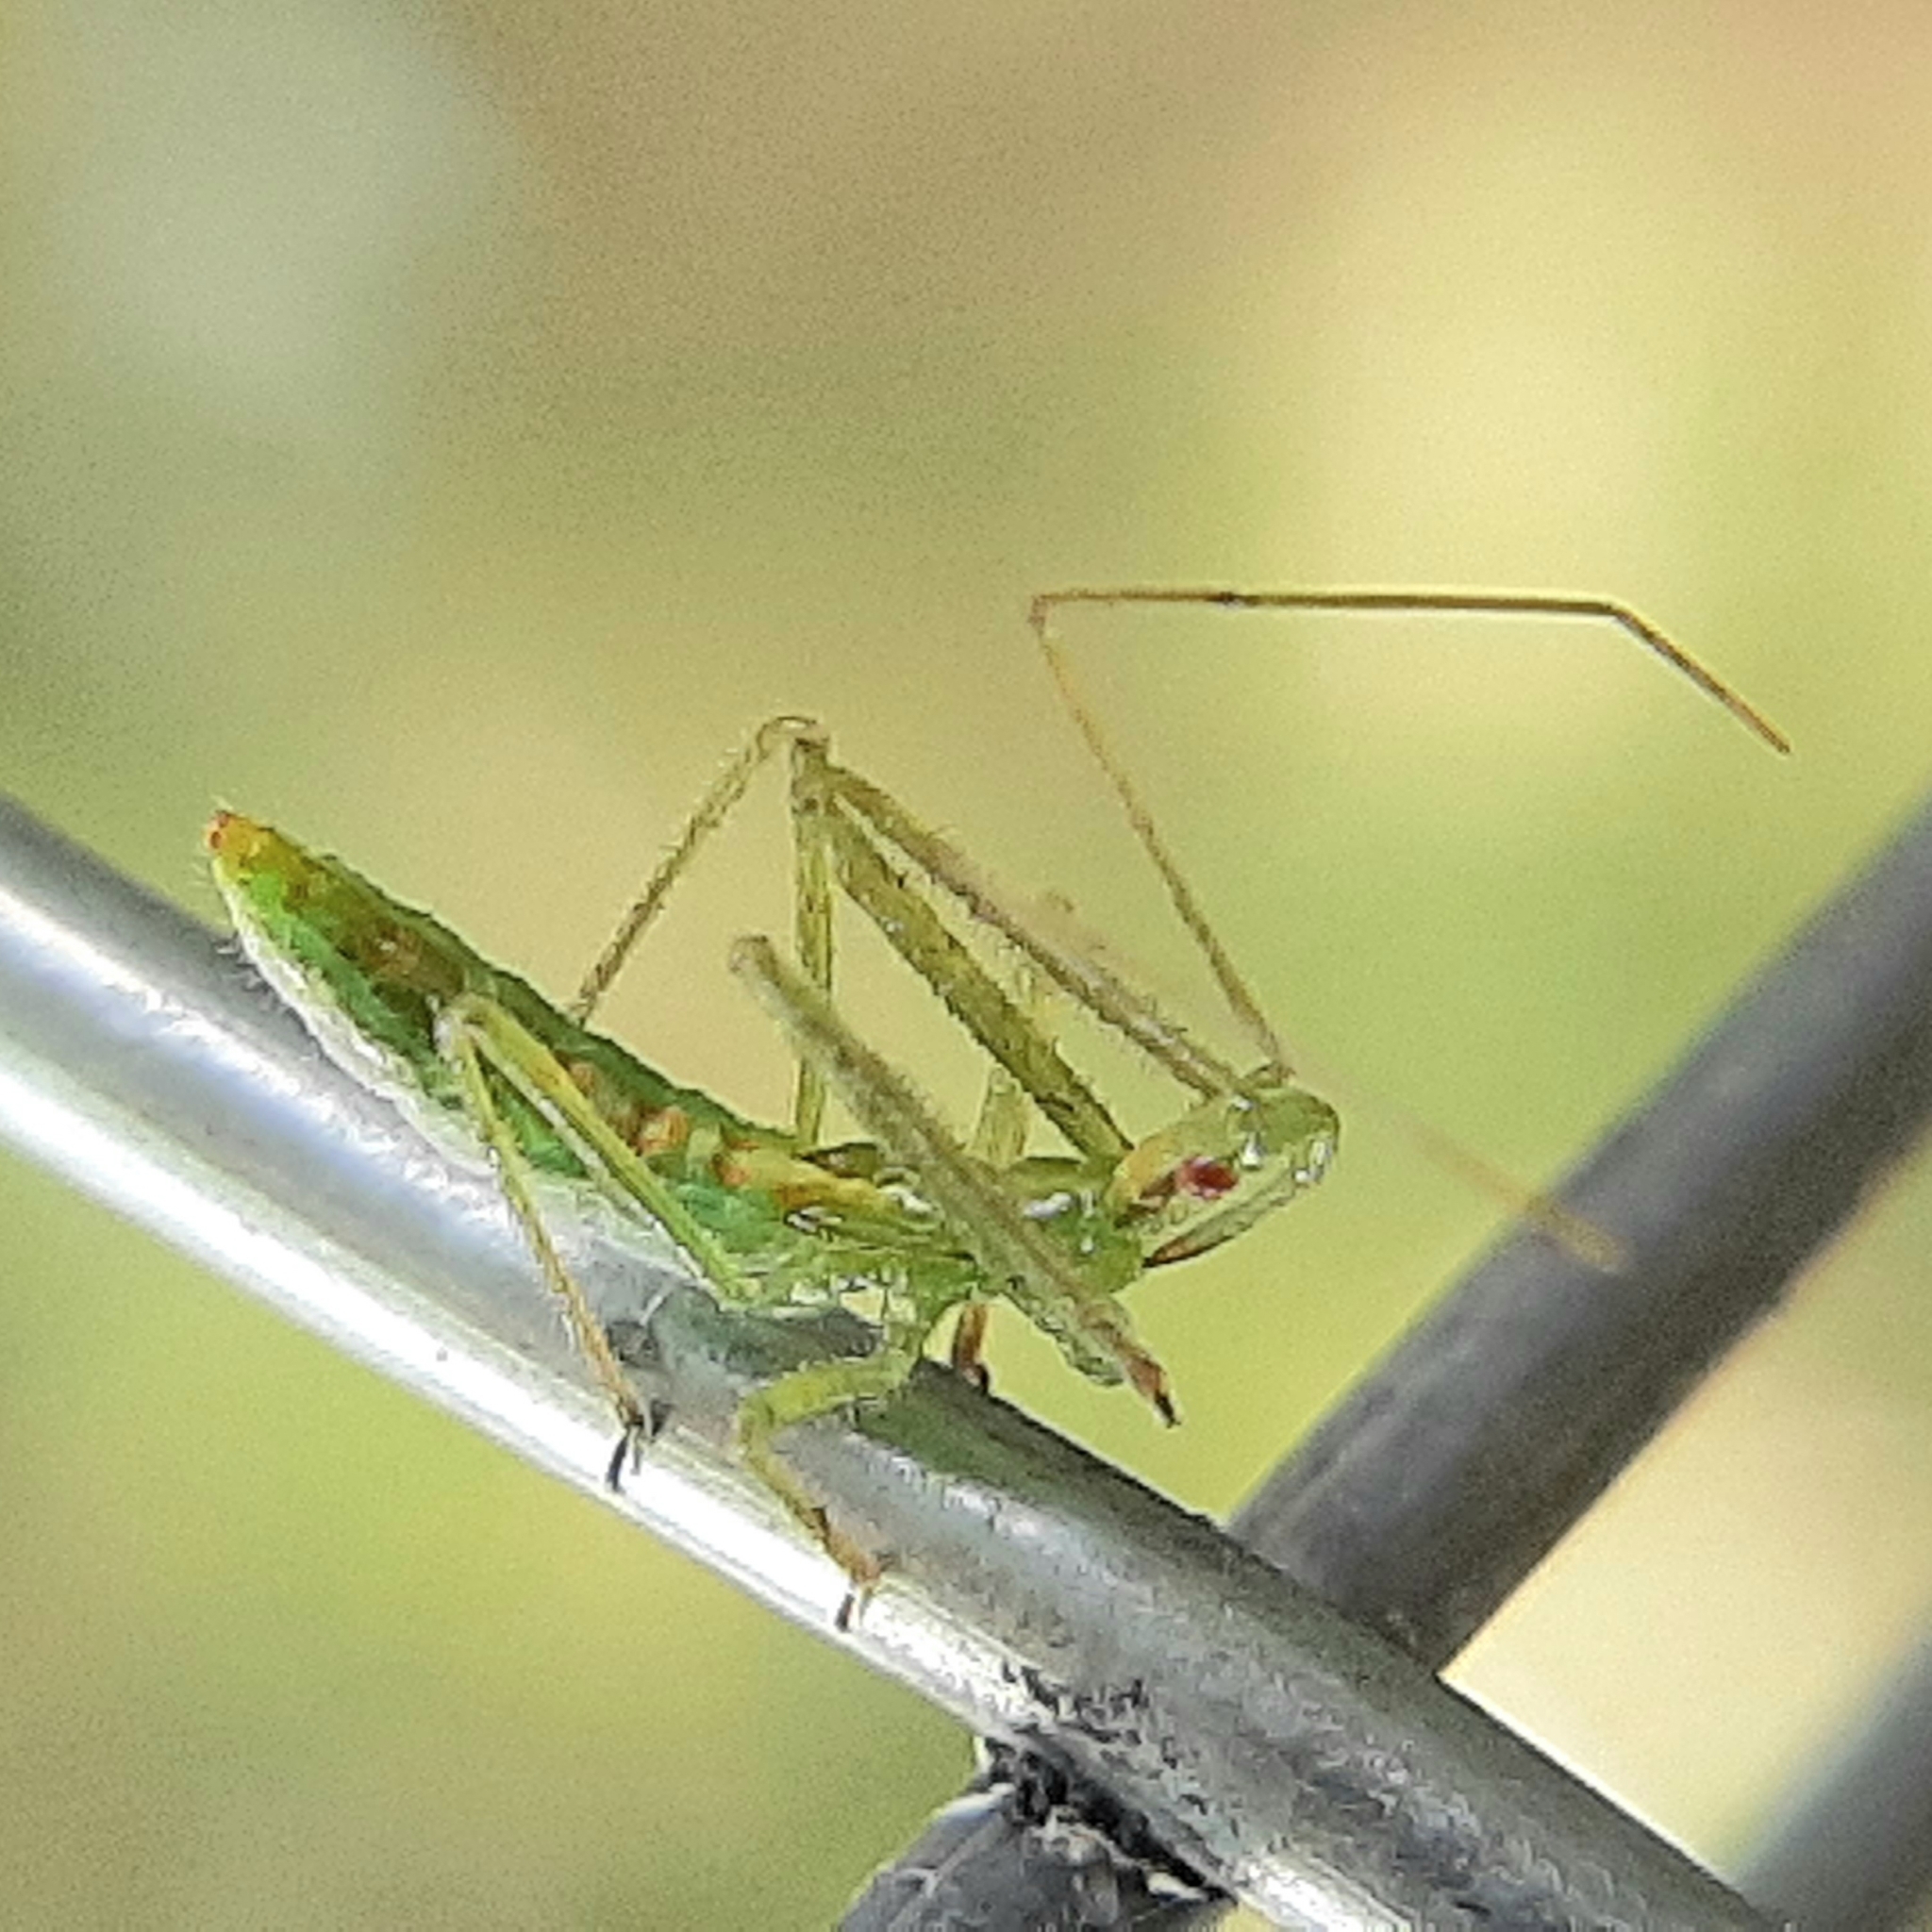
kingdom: Animalia
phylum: Arthropoda
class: Insecta
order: Hemiptera
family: Reduviidae
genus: Zelus
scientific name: Zelus luridus
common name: Pale green assassin bug
